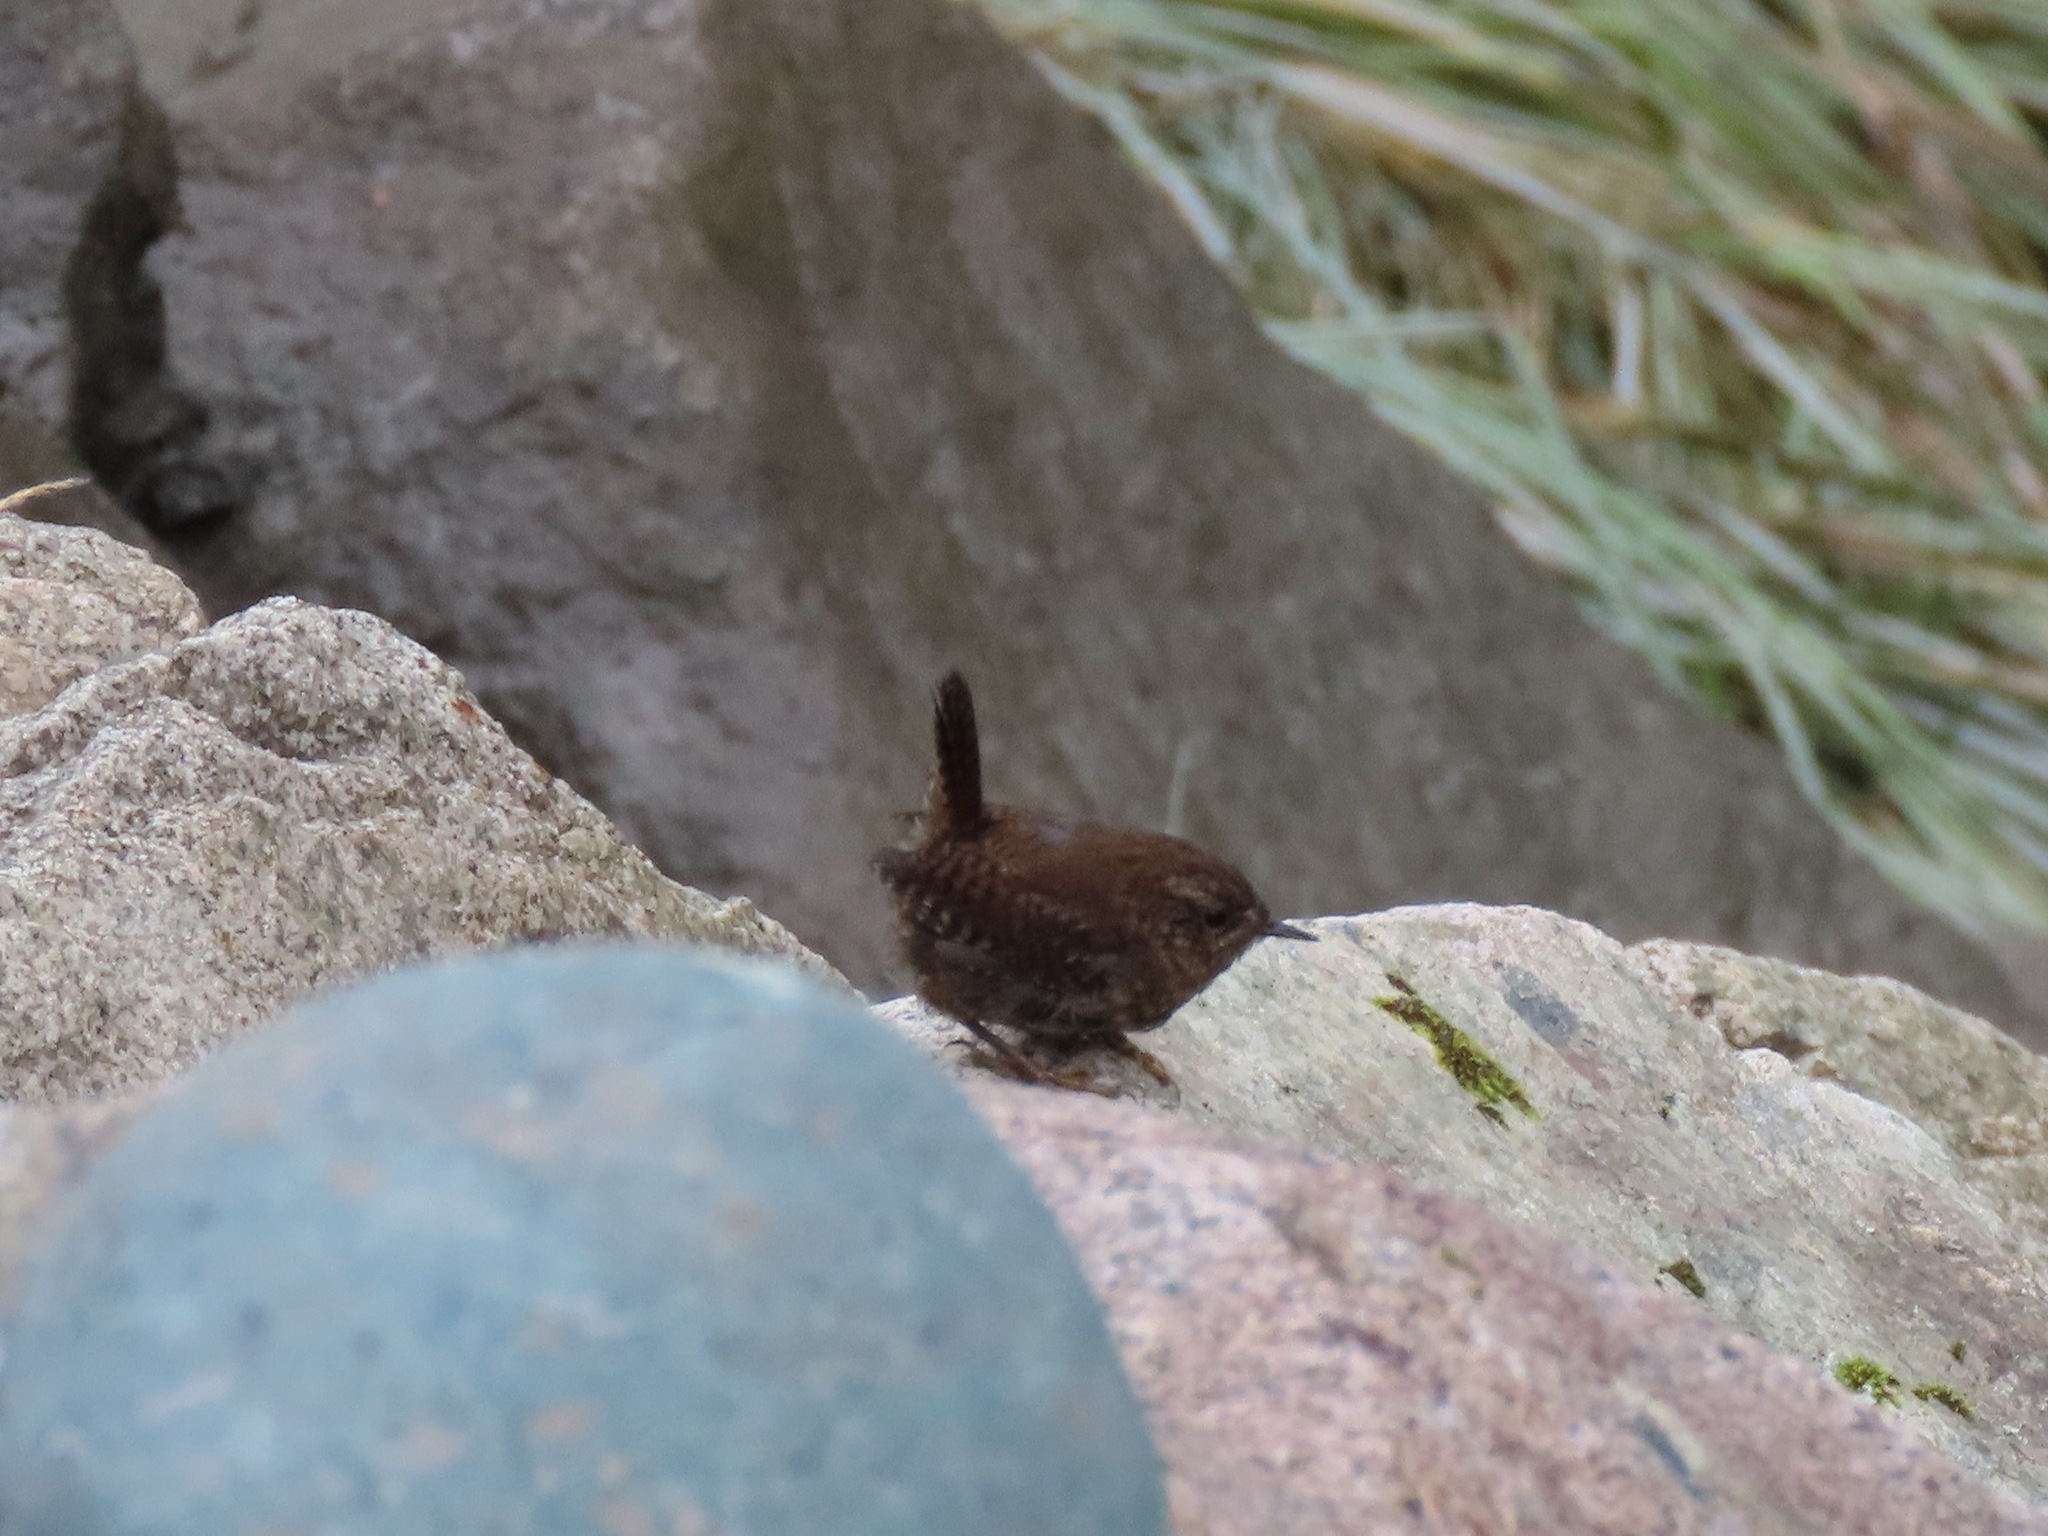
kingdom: Animalia
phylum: Chordata
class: Aves
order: Passeriformes
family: Troglodytidae
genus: Troglodytes
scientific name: Troglodytes pacificus
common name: Pacific wren
